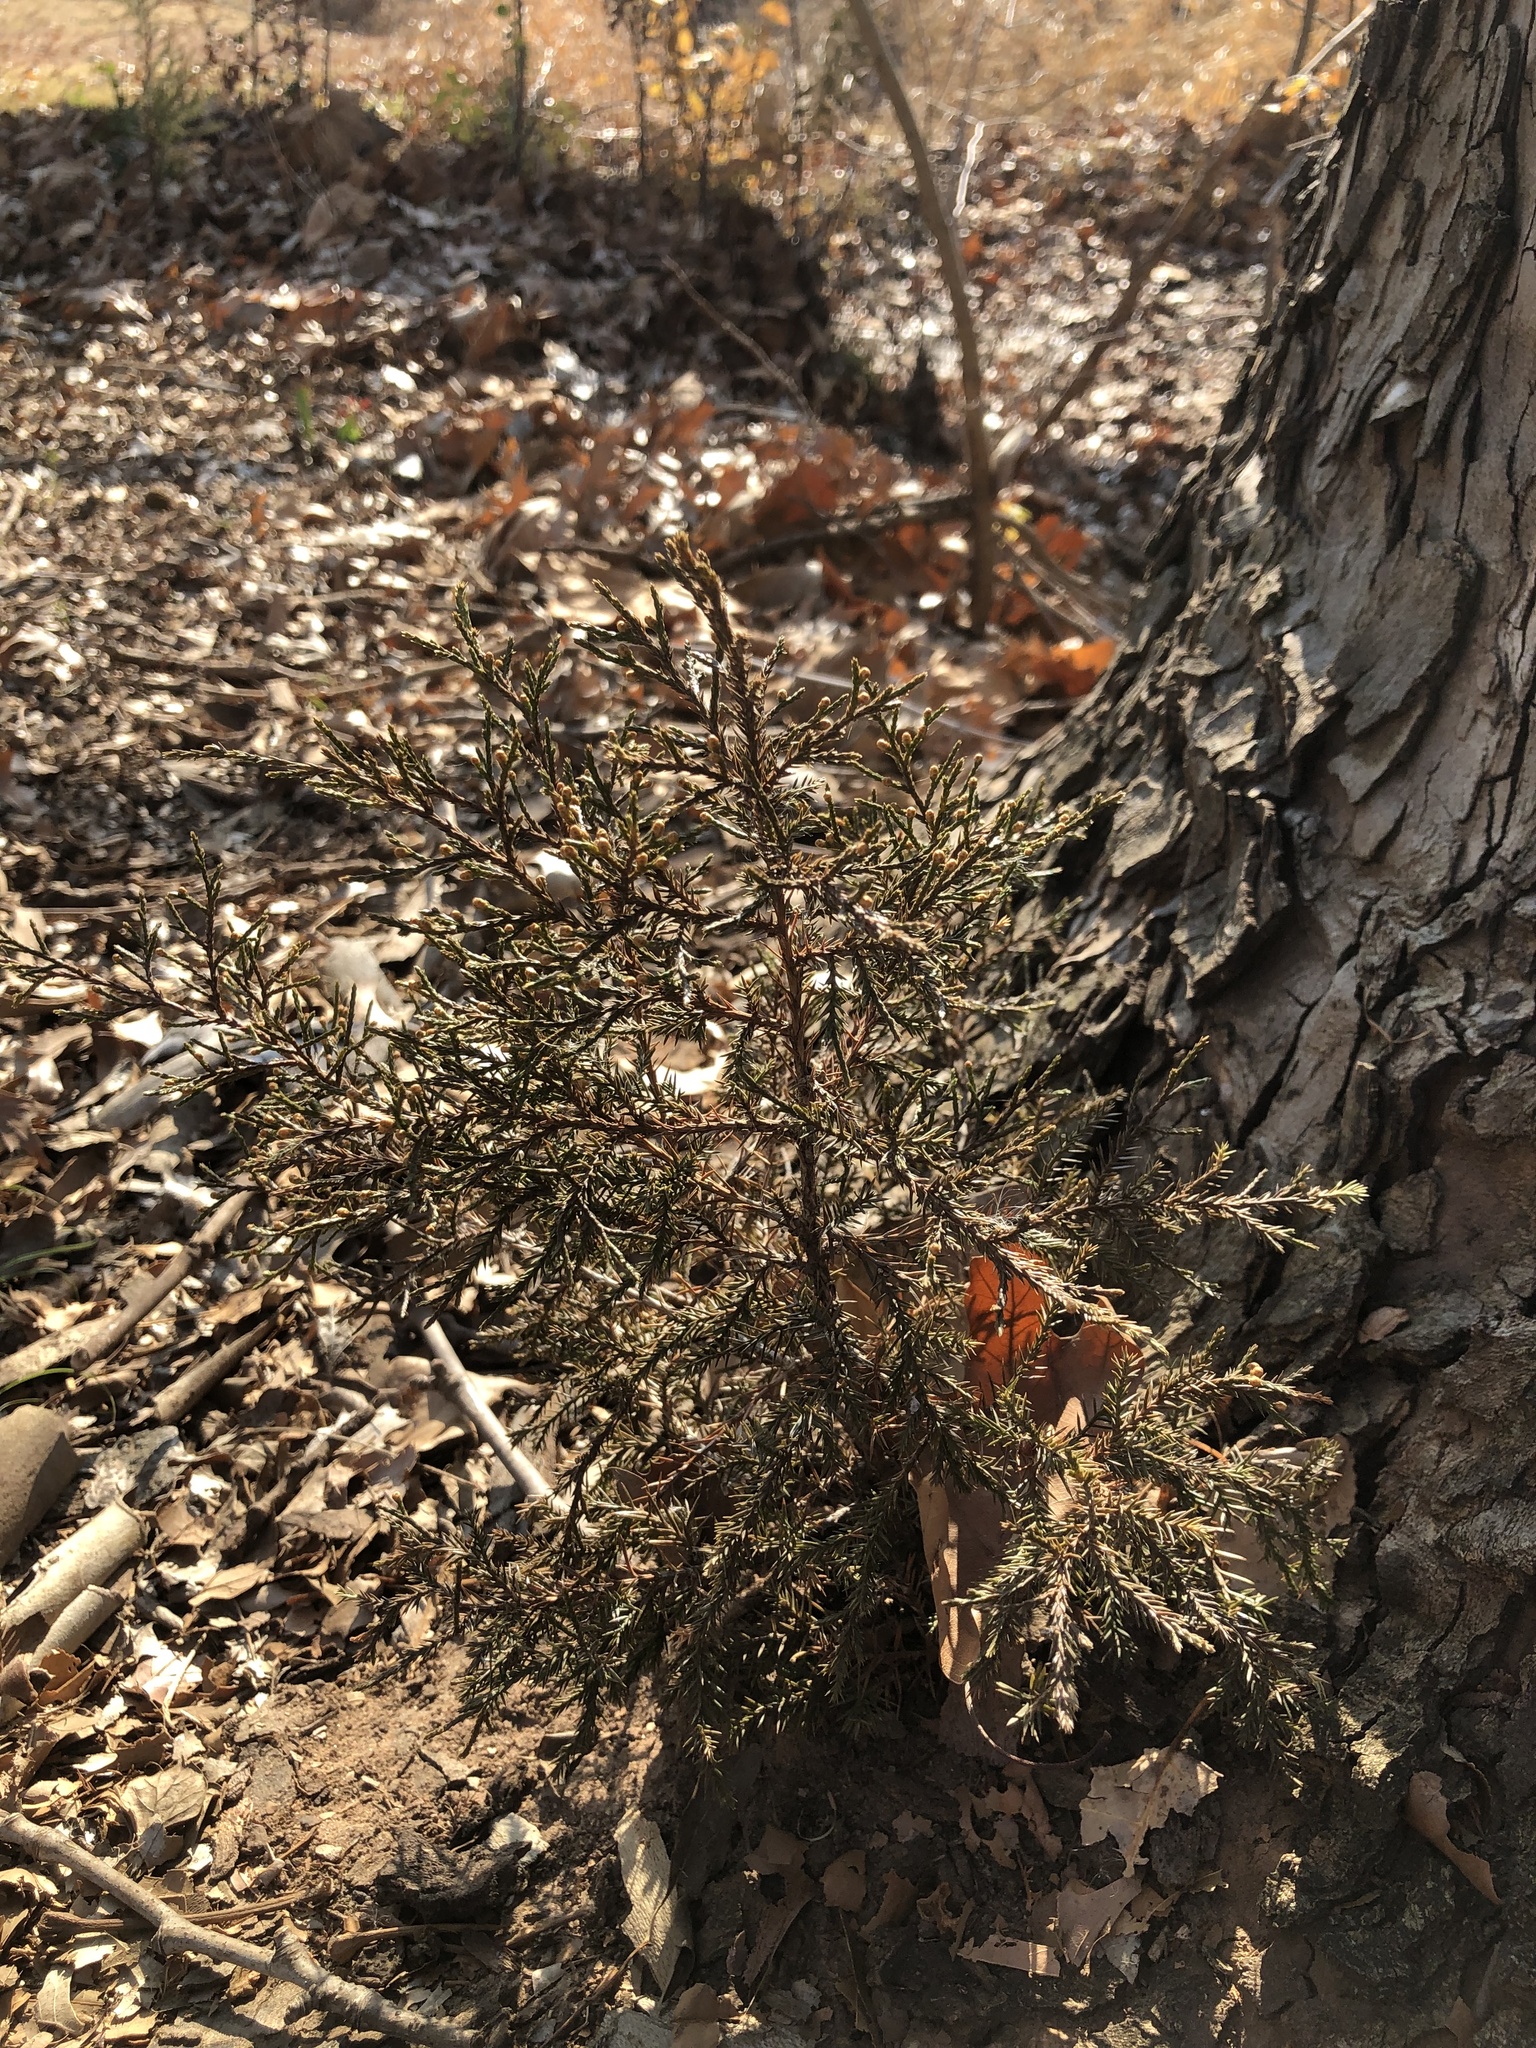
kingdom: Plantae
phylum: Tracheophyta
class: Pinopsida
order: Pinales
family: Cupressaceae
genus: Juniperus
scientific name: Juniperus virginiana
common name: Red juniper
